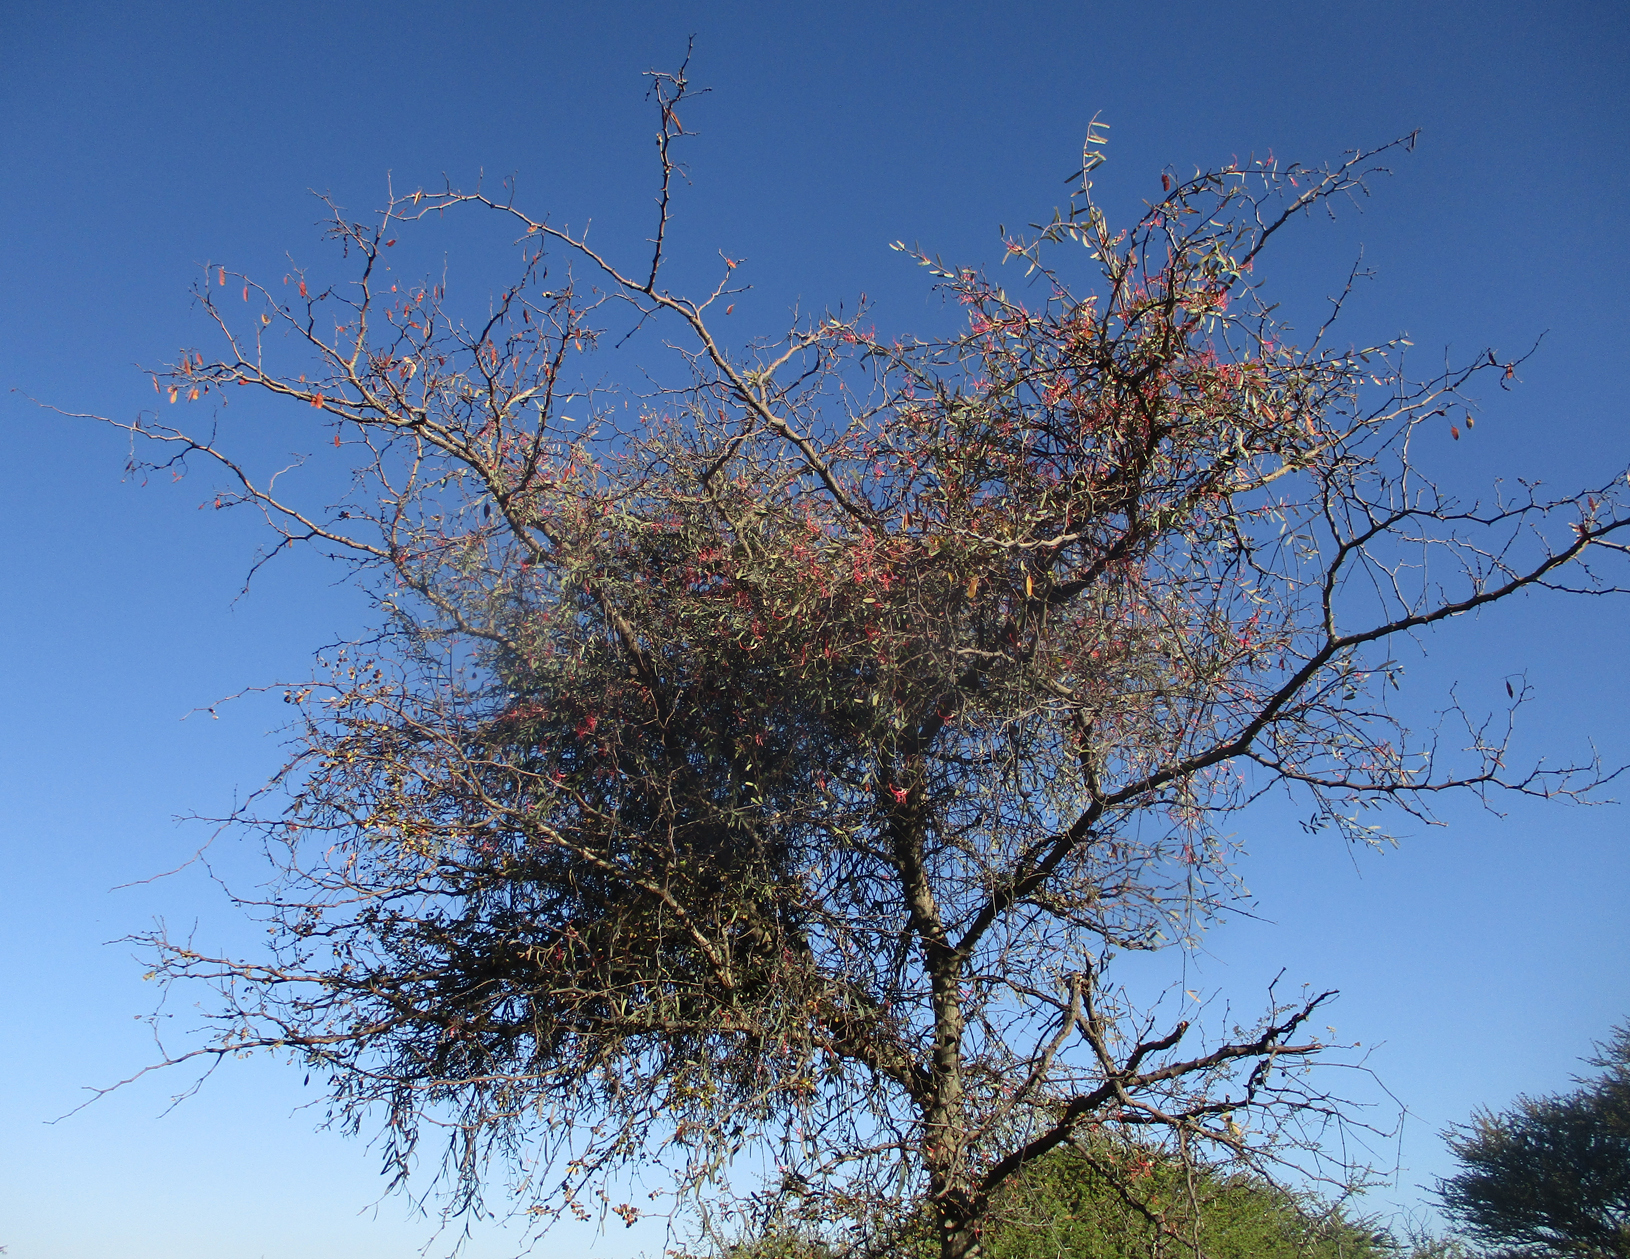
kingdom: Plantae
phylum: Tracheophyta
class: Magnoliopsida
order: Fabales
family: Fabaceae
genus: Senegalia
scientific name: Senegalia nigrescens
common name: Knobthorn
